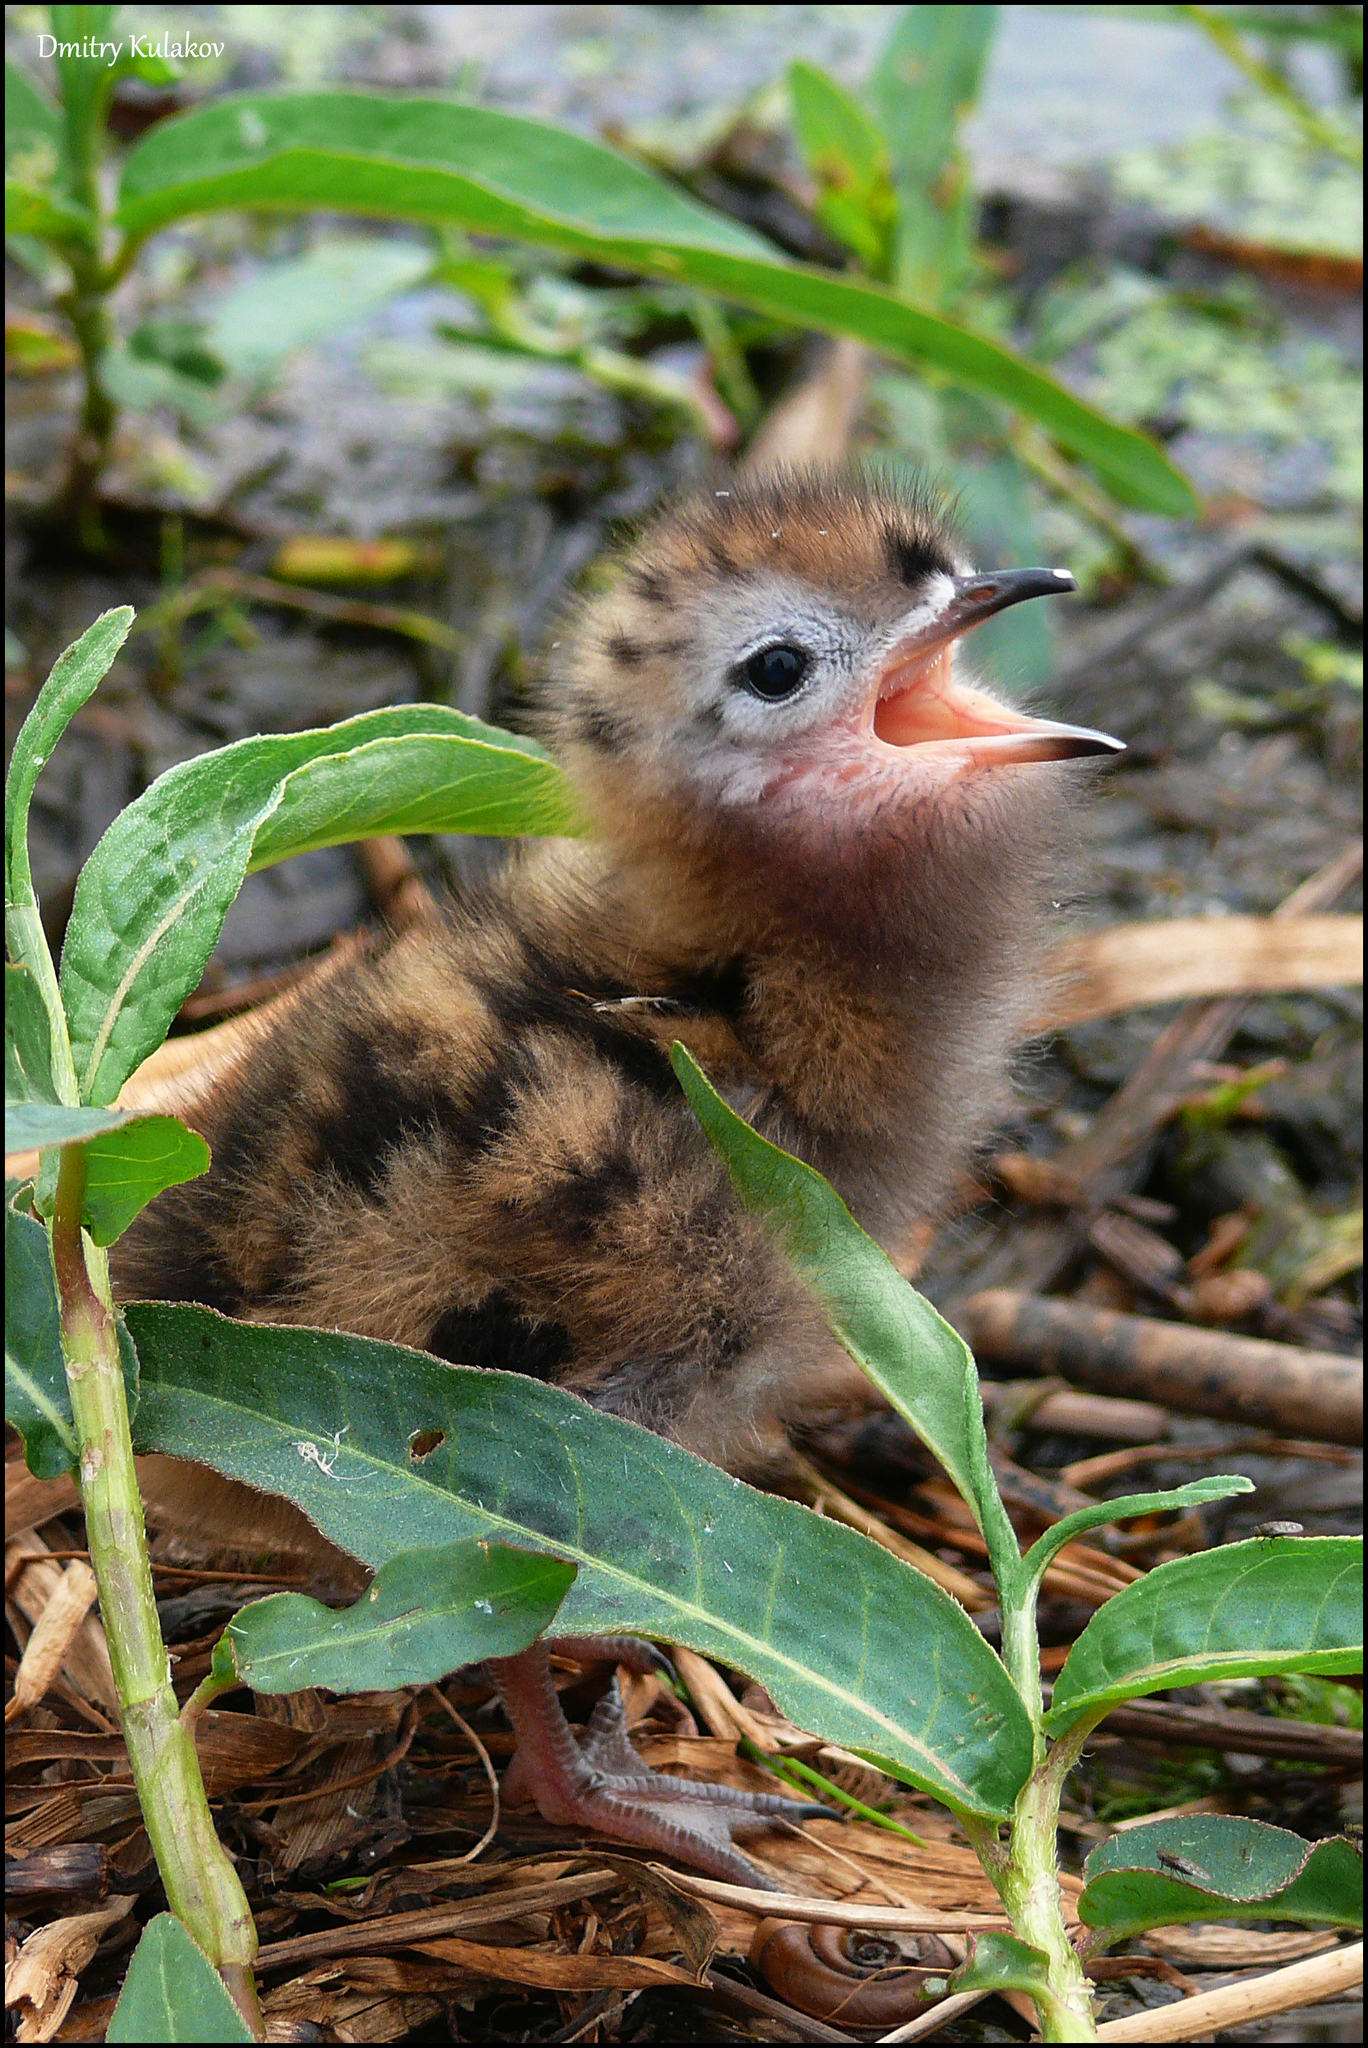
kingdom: Animalia
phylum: Chordata
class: Aves
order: Charadriiformes
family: Laridae
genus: Chlidonias
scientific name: Chlidonias niger
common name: Black tern
